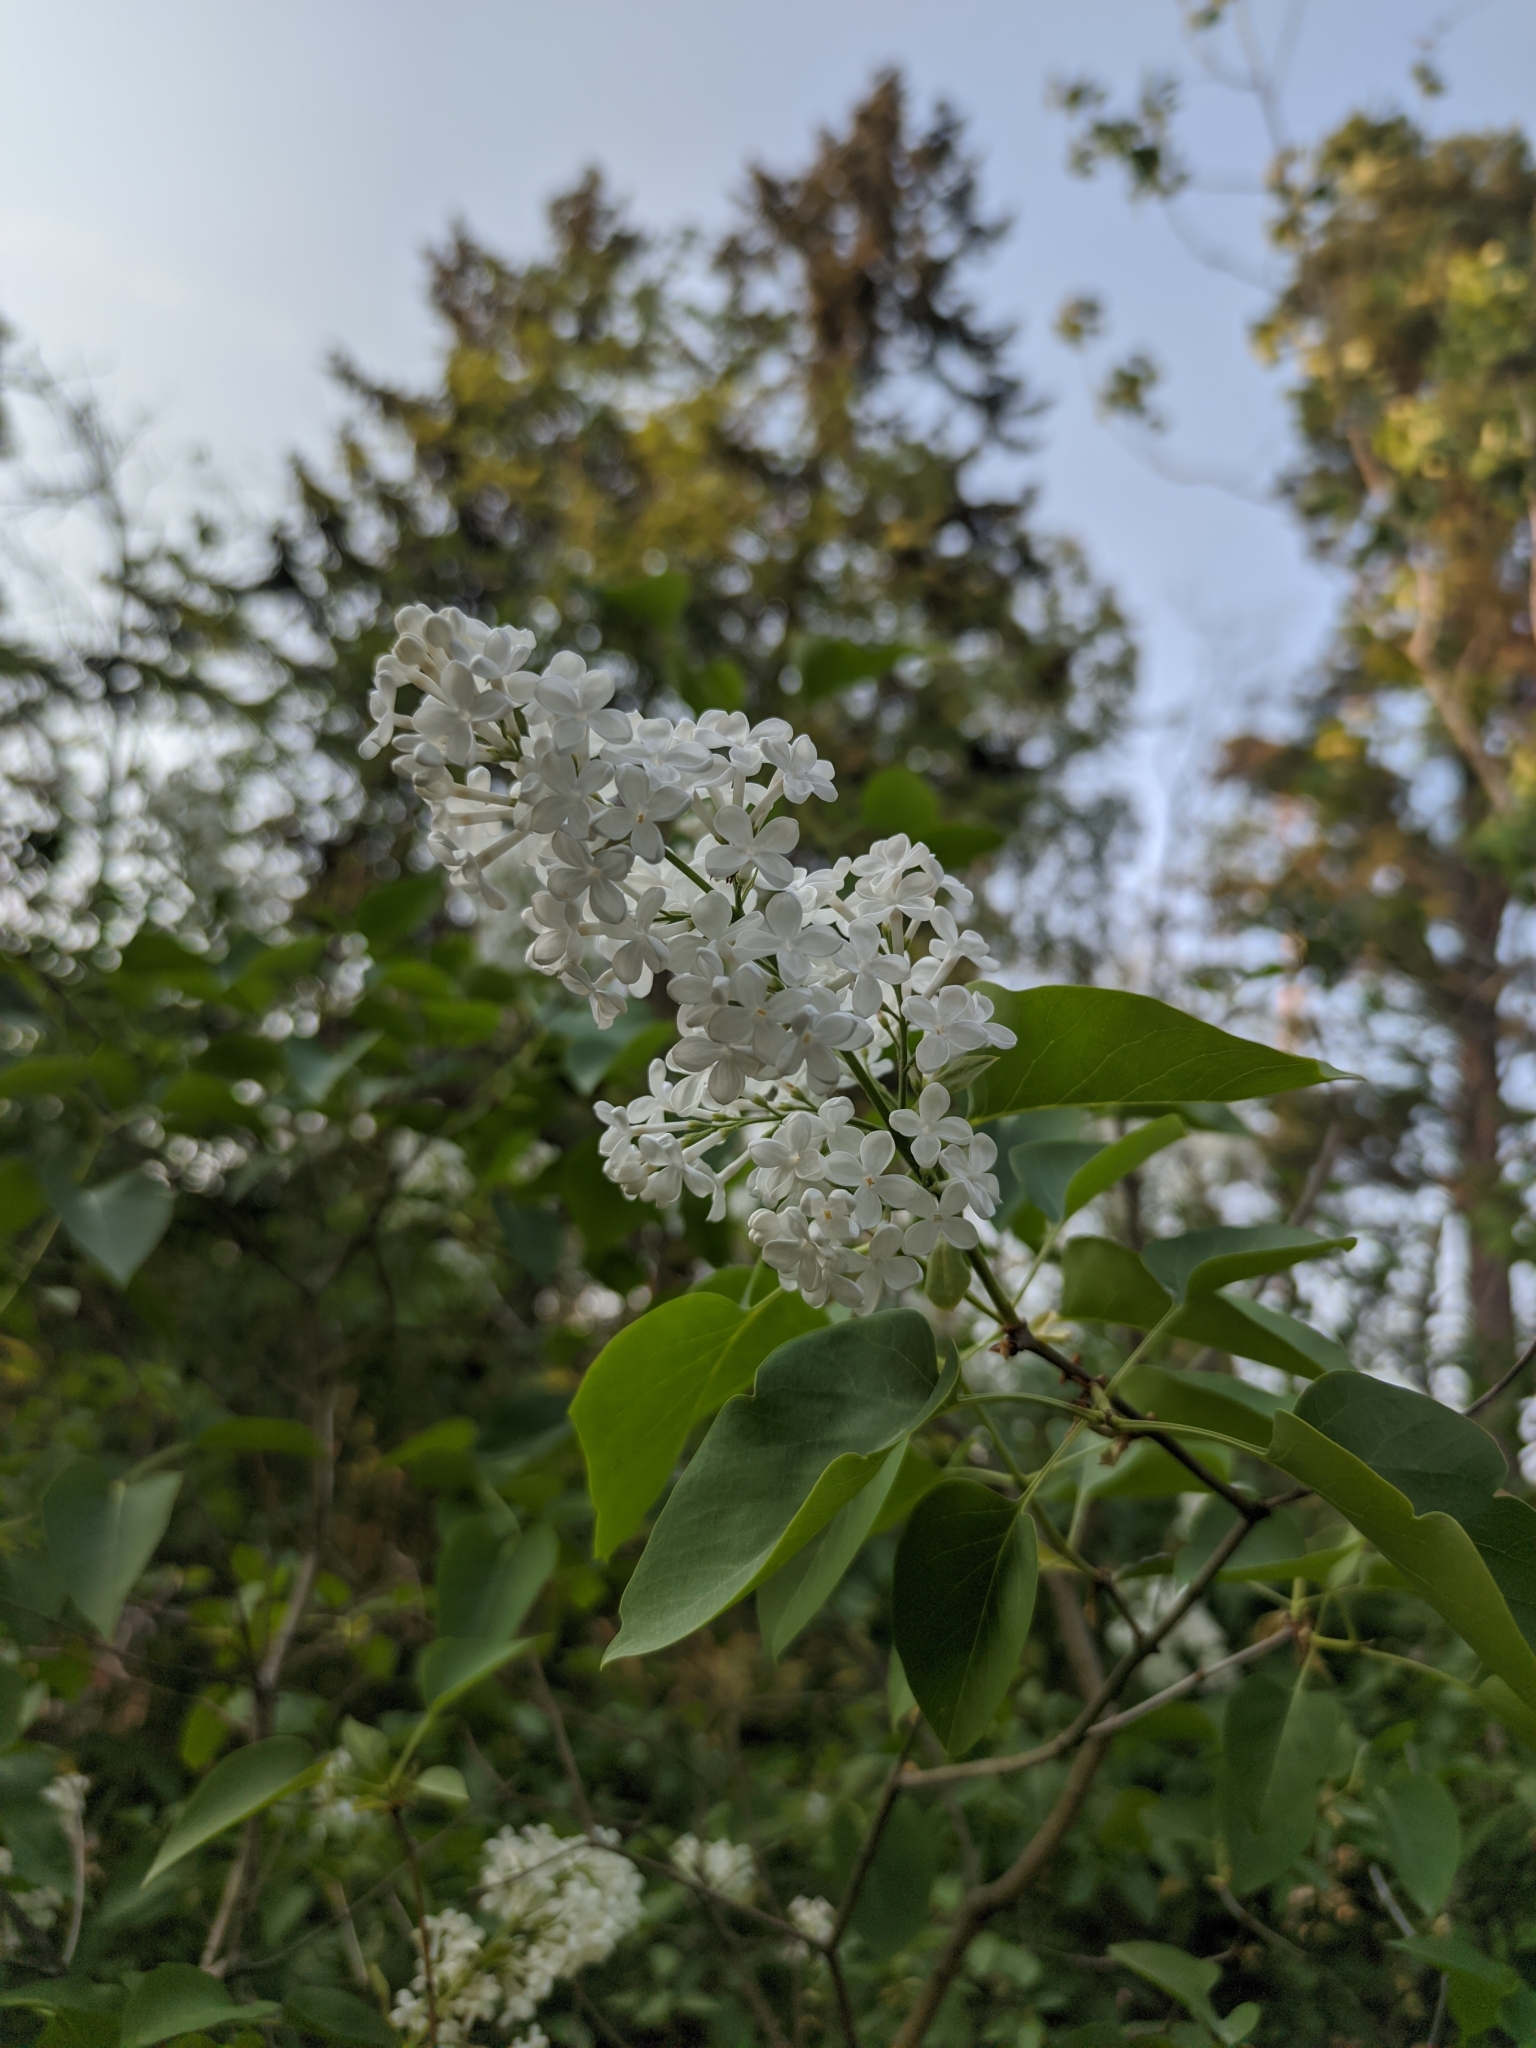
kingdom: Plantae
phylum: Tracheophyta
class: Magnoliopsida
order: Lamiales
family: Oleaceae
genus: Syringa
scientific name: Syringa vulgaris
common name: Common lilac
